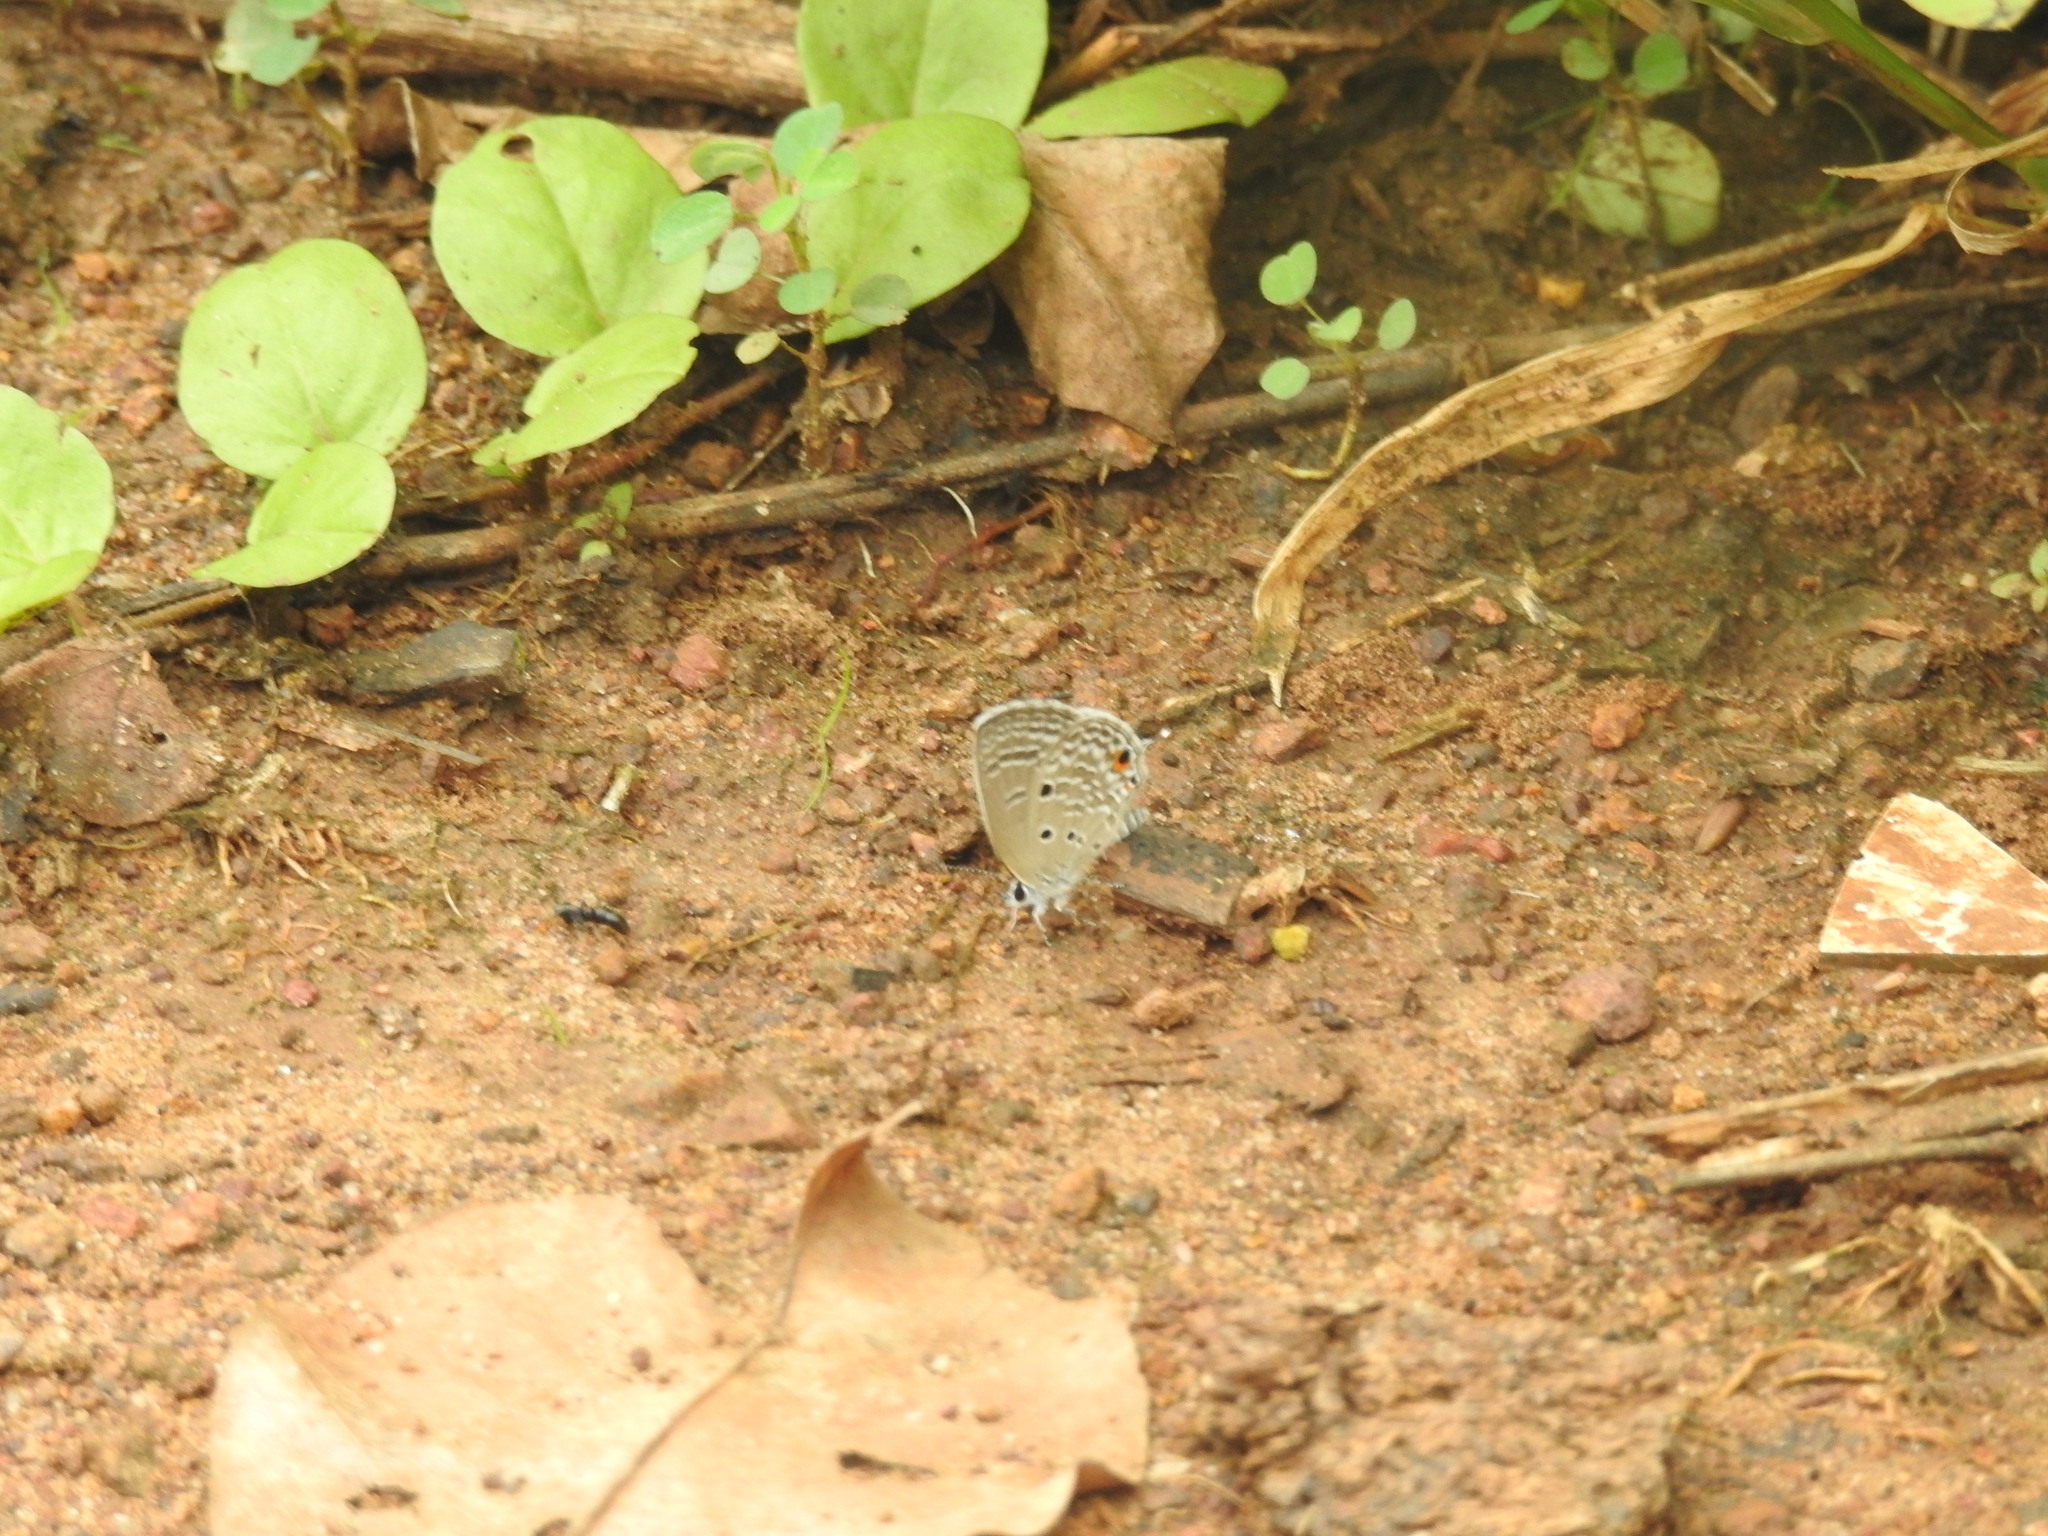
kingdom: Animalia
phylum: Arthropoda
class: Insecta
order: Lepidoptera
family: Lycaenidae
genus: Luthrodes
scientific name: Luthrodes pandava
